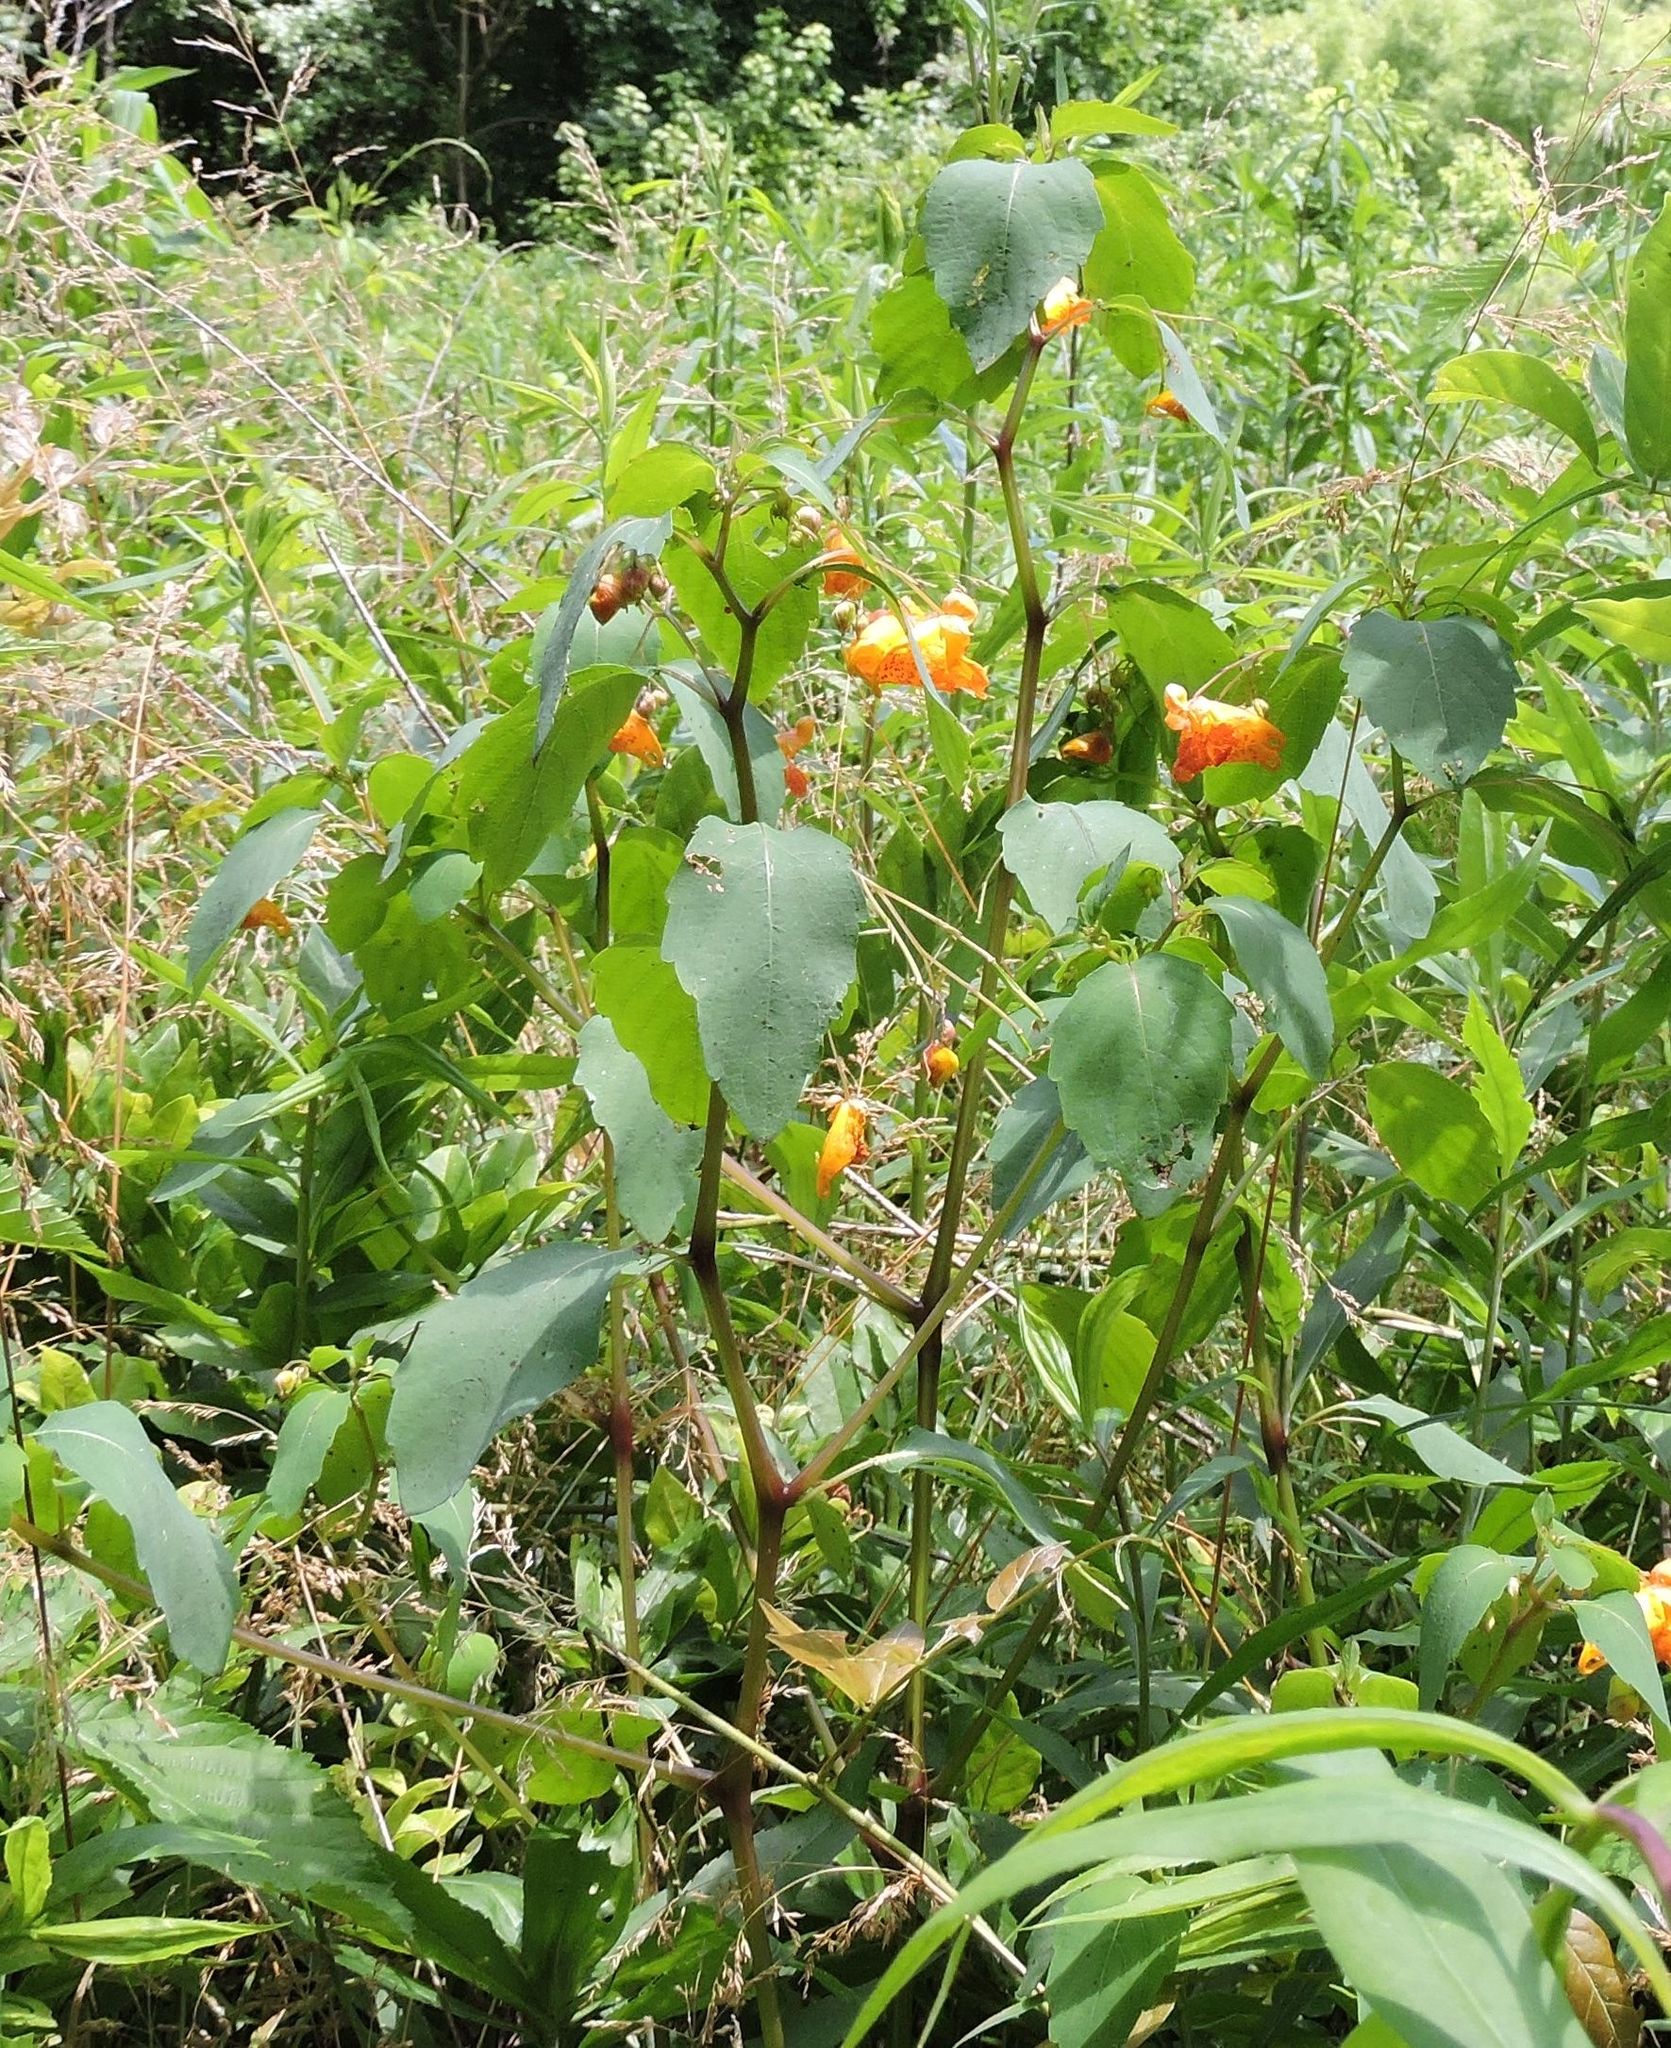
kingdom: Plantae
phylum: Tracheophyta
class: Magnoliopsida
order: Ericales
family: Balsaminaceae
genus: Impatiens
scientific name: Impatiens capensis
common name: Orange balsam
